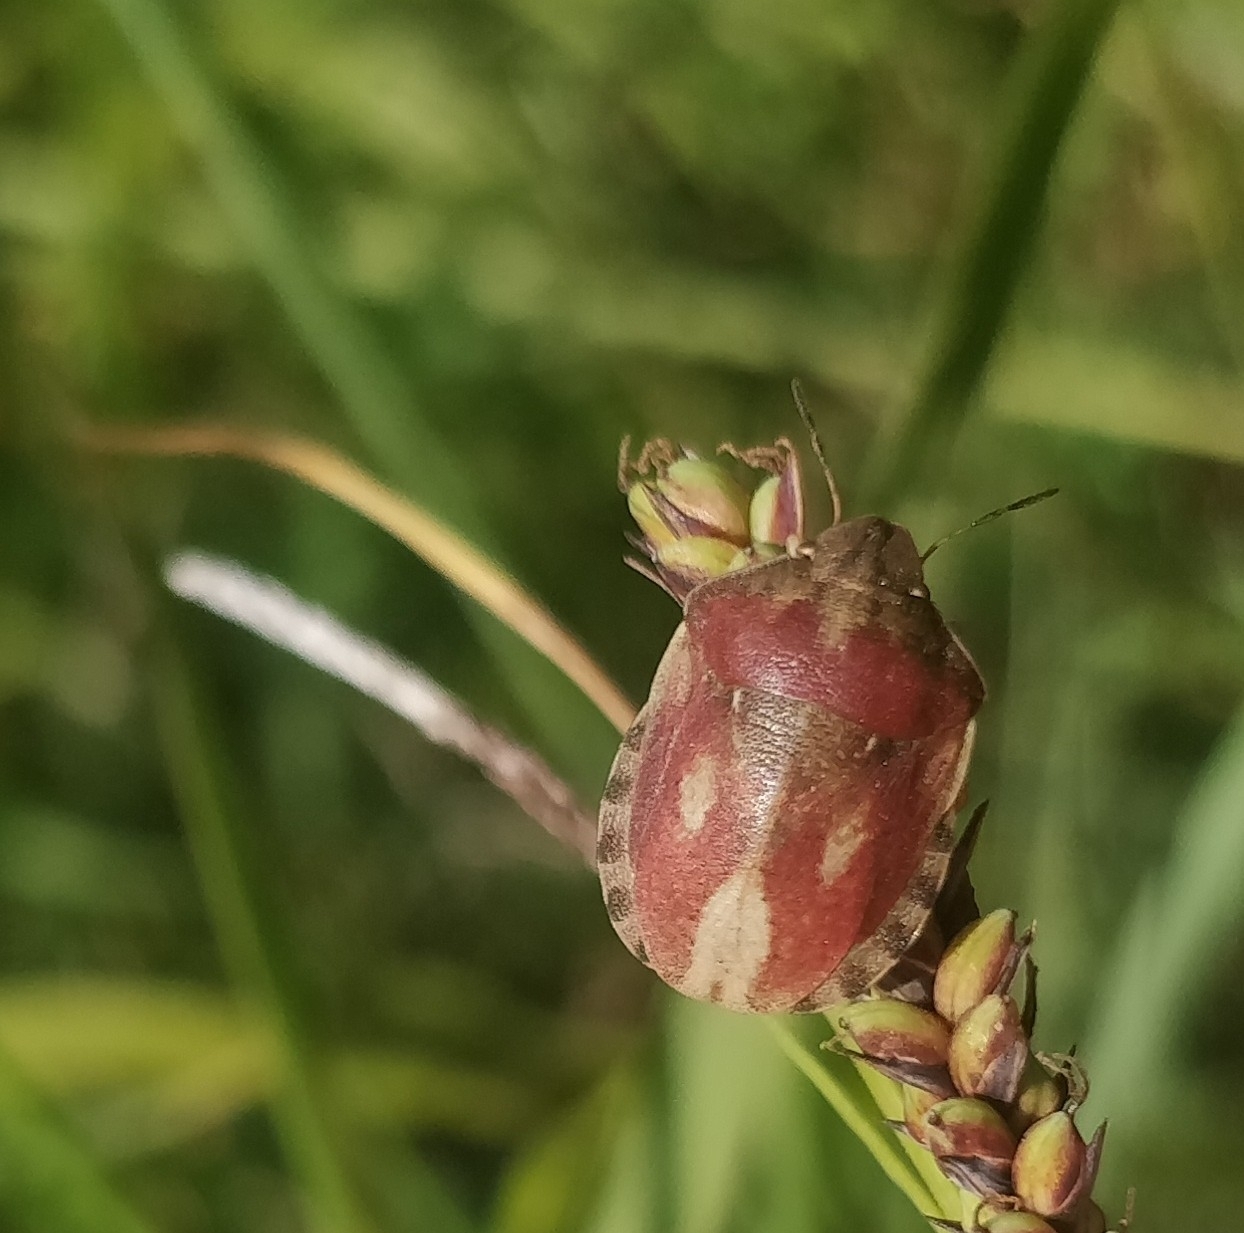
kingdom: Animalia
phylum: Arthropoda
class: Insecta
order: Hemiptera
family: Scutelleridae
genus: Eurygaster
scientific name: Eurygaster testudinaria
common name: Tortoise bug
